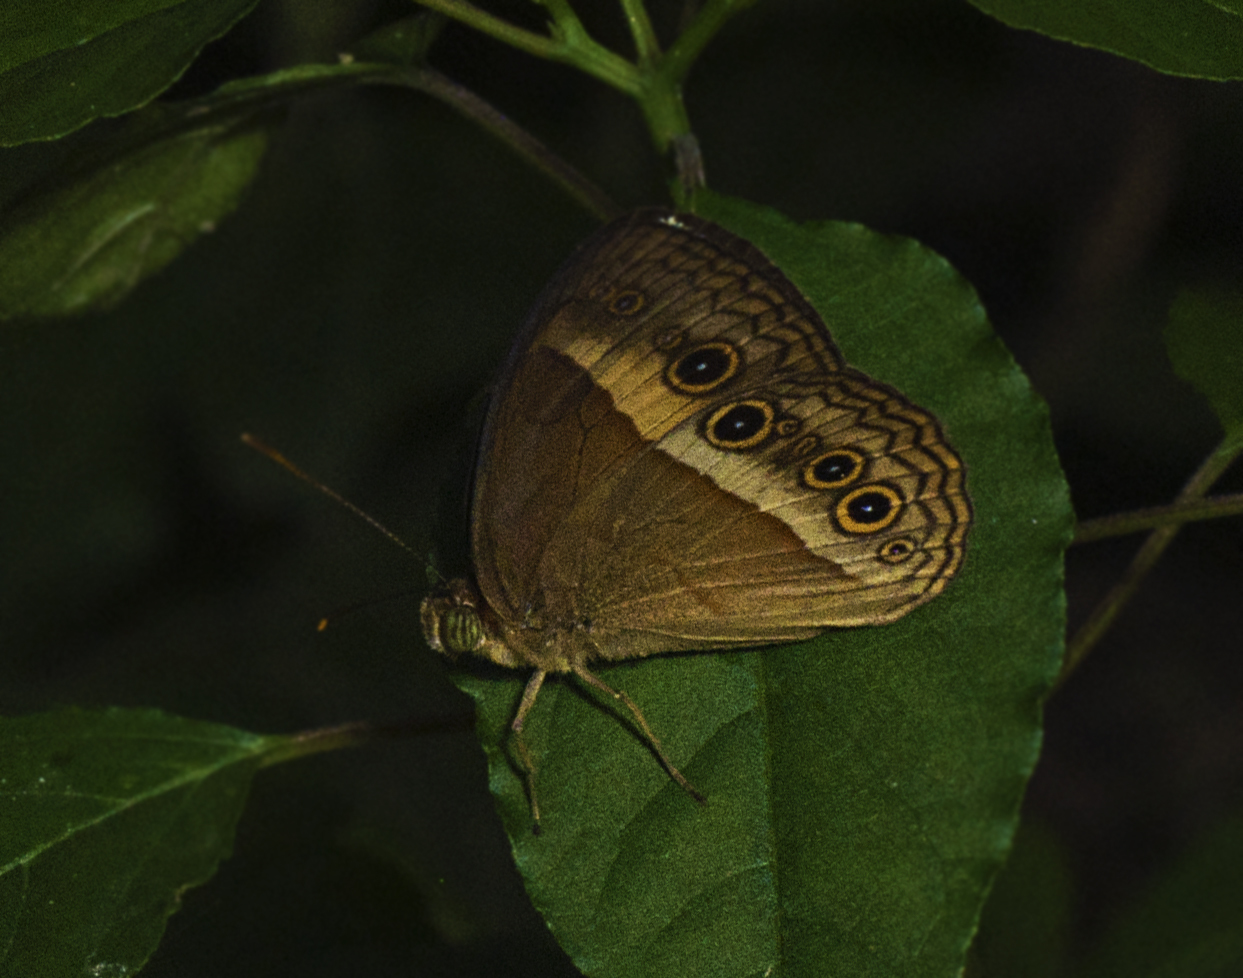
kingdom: Animalia
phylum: Arthropoda
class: Insecta
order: Lepidoptera
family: Nymphalidae
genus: Mycalesis
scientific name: Mycalesis terminus
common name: Orange bushbrown
